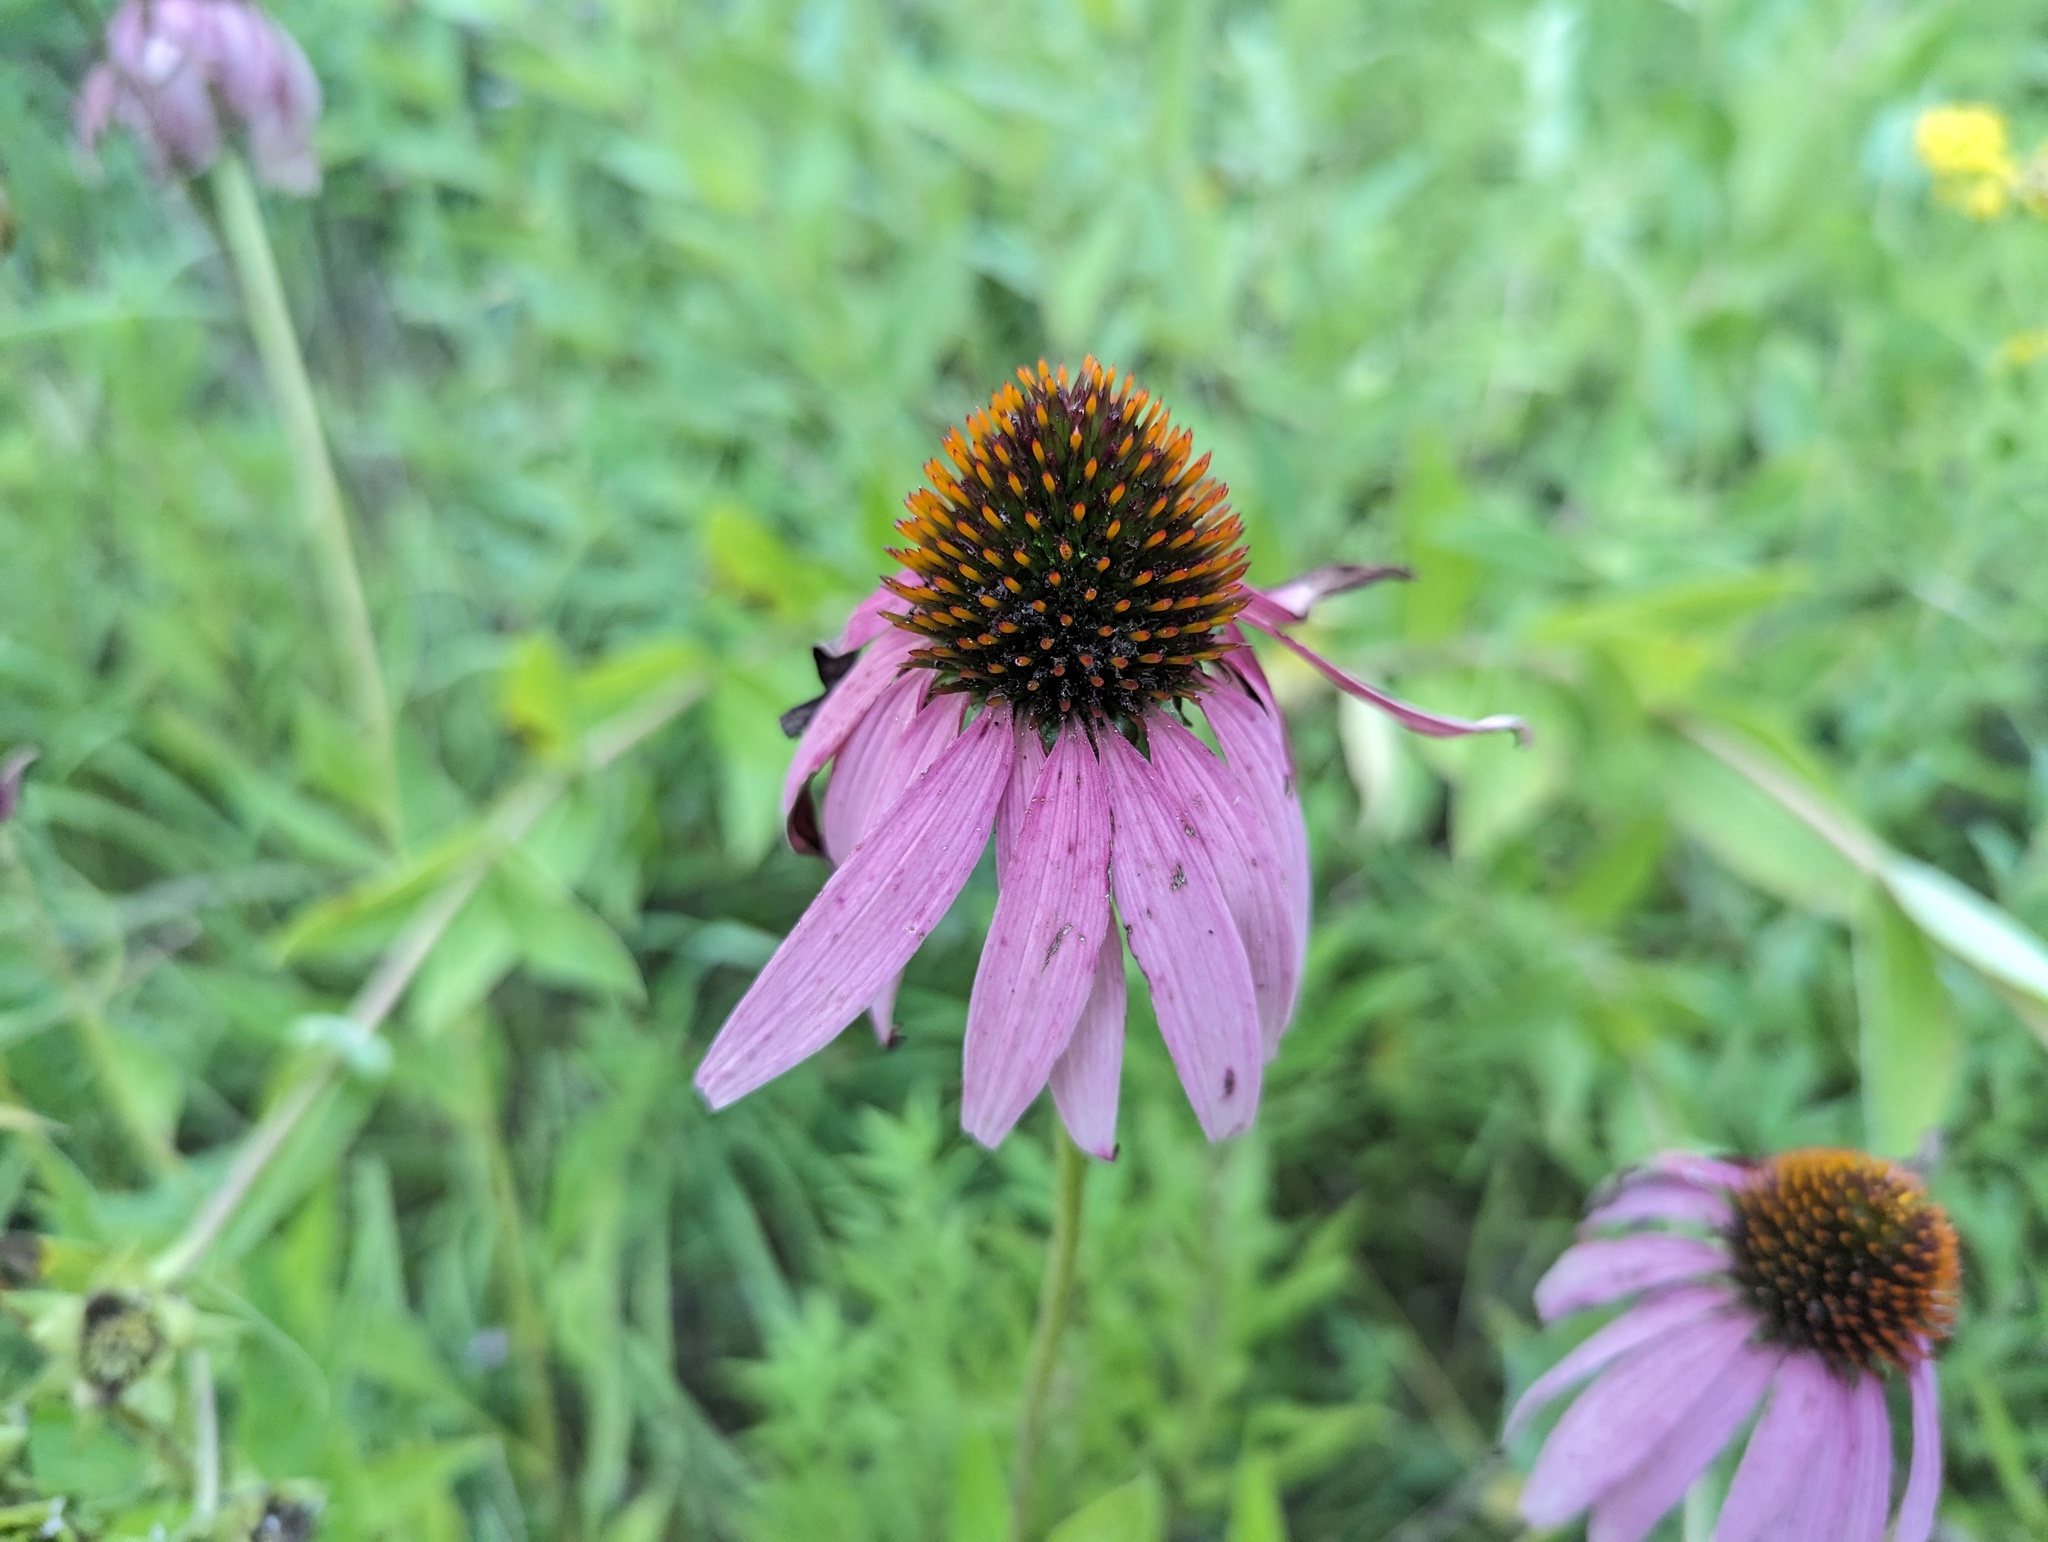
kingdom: Plantae
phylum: Tracheophyta
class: Magnoliopsida
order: Asterales
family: Asteraceae
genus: Echinacea
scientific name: Echinacea purpurea
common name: Broad-leaved purple coneflower
